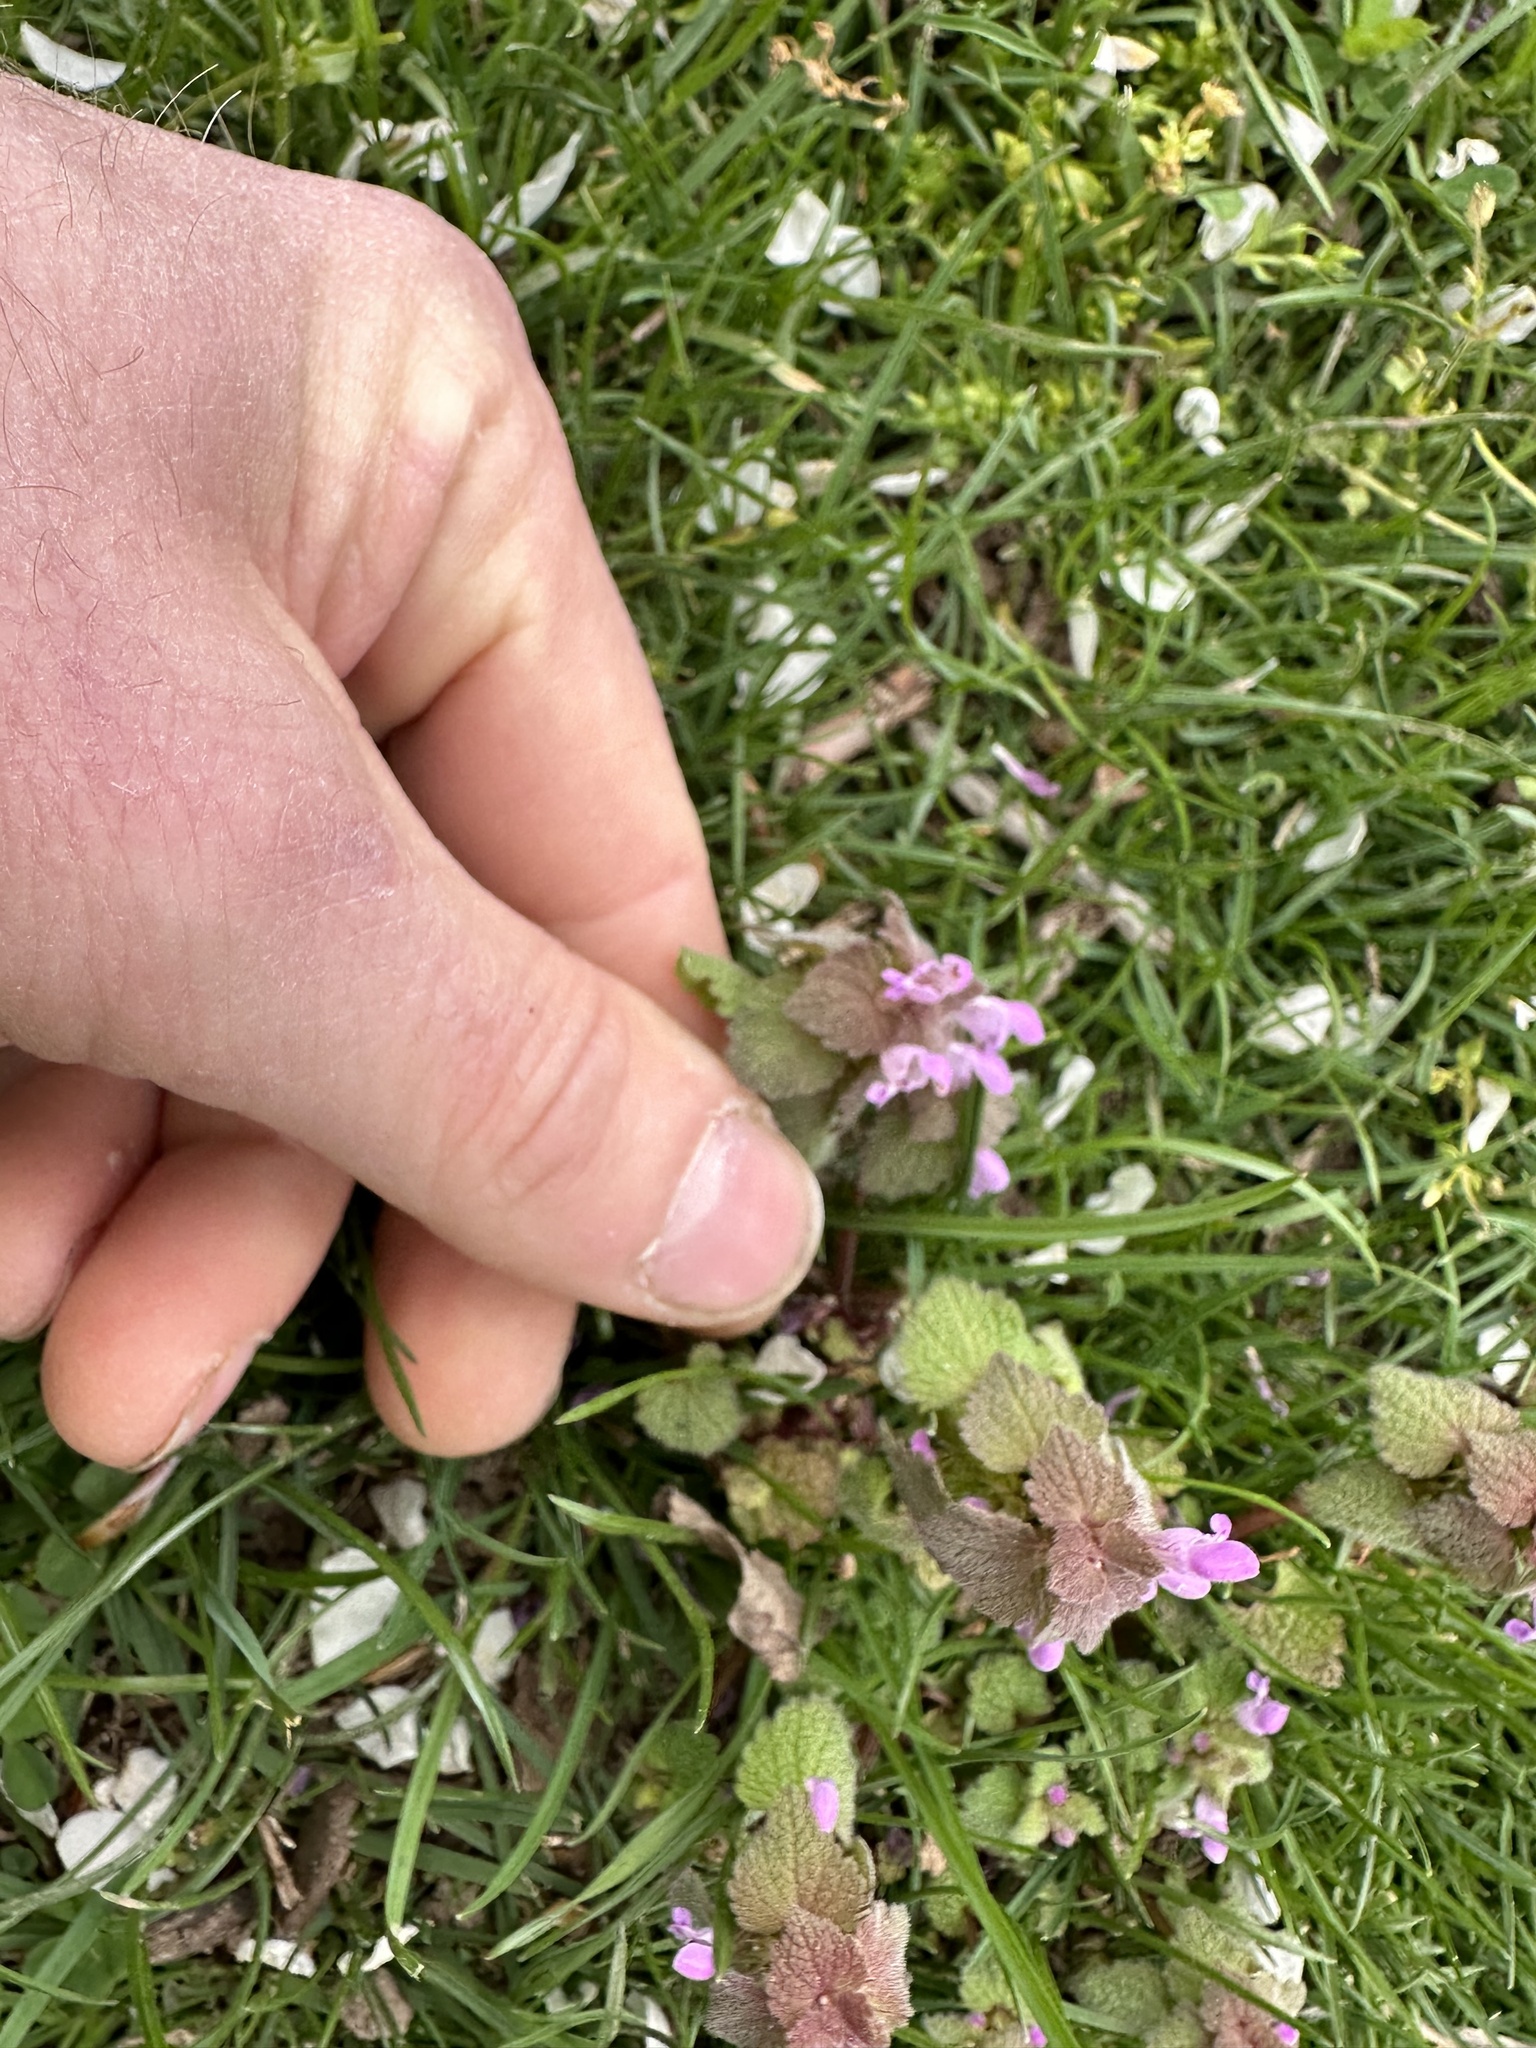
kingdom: Plantae
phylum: Tracheophyta
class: Magnoliopsida
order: Lamiales
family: Lamiaceae
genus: Lamium
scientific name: Lamium purpureum
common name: Red dead-nettle
